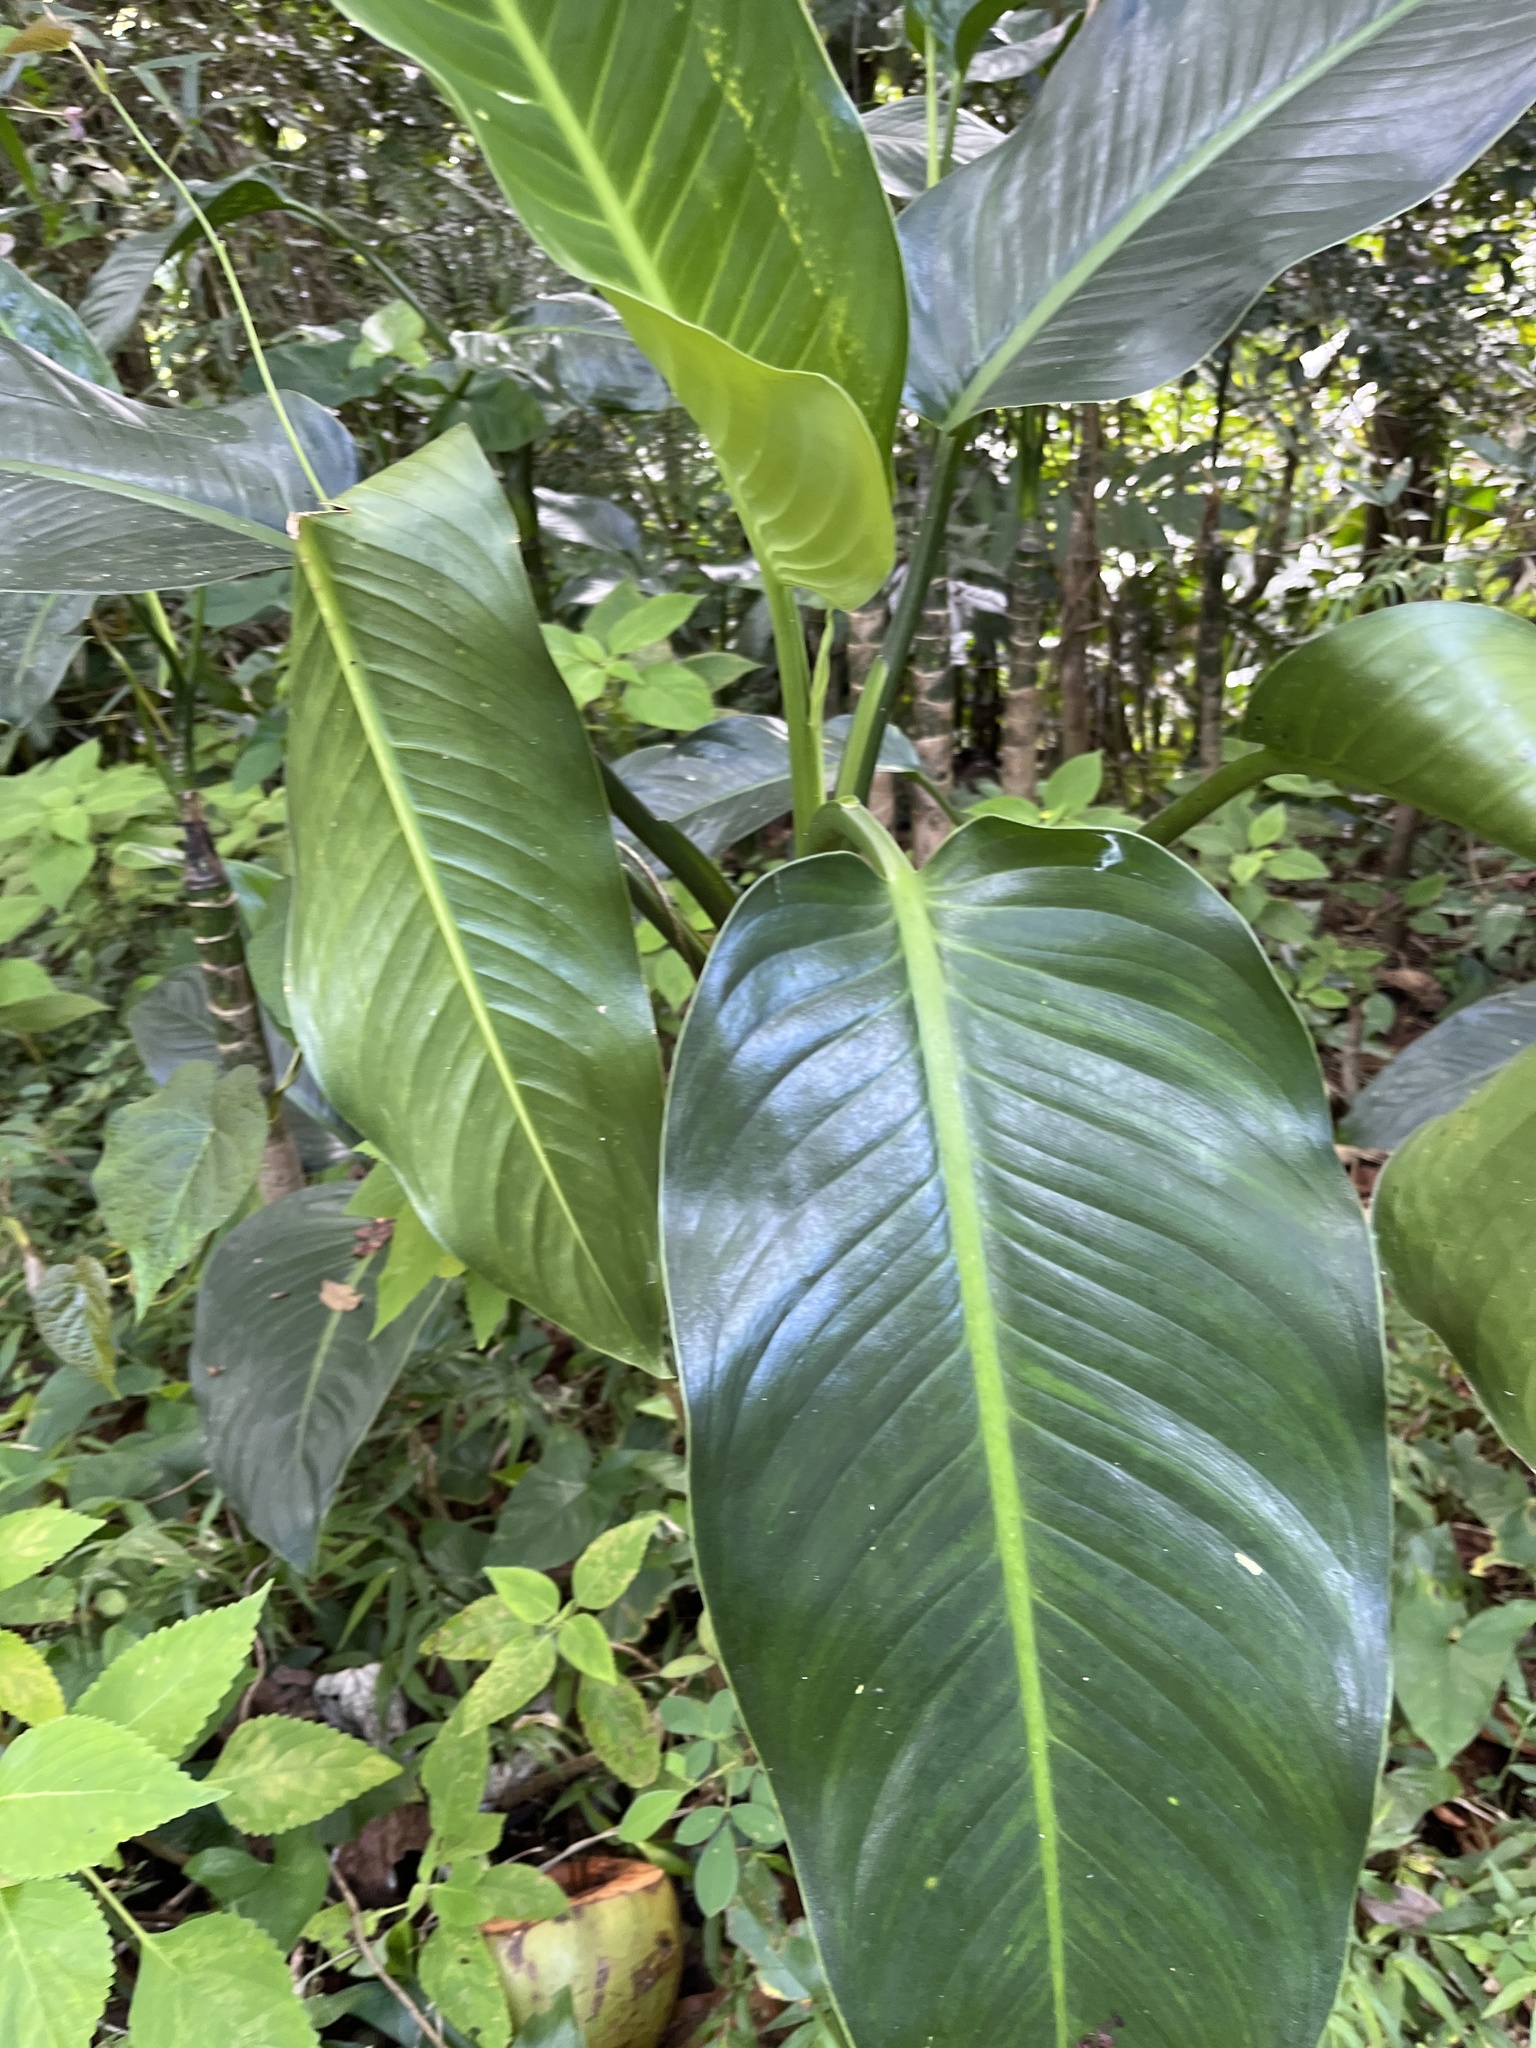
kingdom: Plantae
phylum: Tracheophyta
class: Liliopsida
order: Alismatales
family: Araceae
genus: Dieffenbachia
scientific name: Dieffenbachia seguine
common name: Dumbcane
